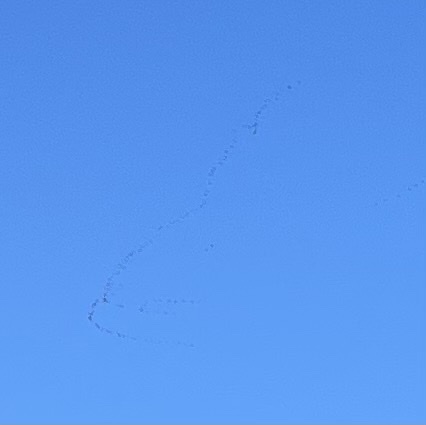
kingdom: Animalia
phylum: Chordata
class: Aves
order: Anseriformes
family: Anatidae
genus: Anser
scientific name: Anser brachyrhynchus
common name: Pink-footed goose
